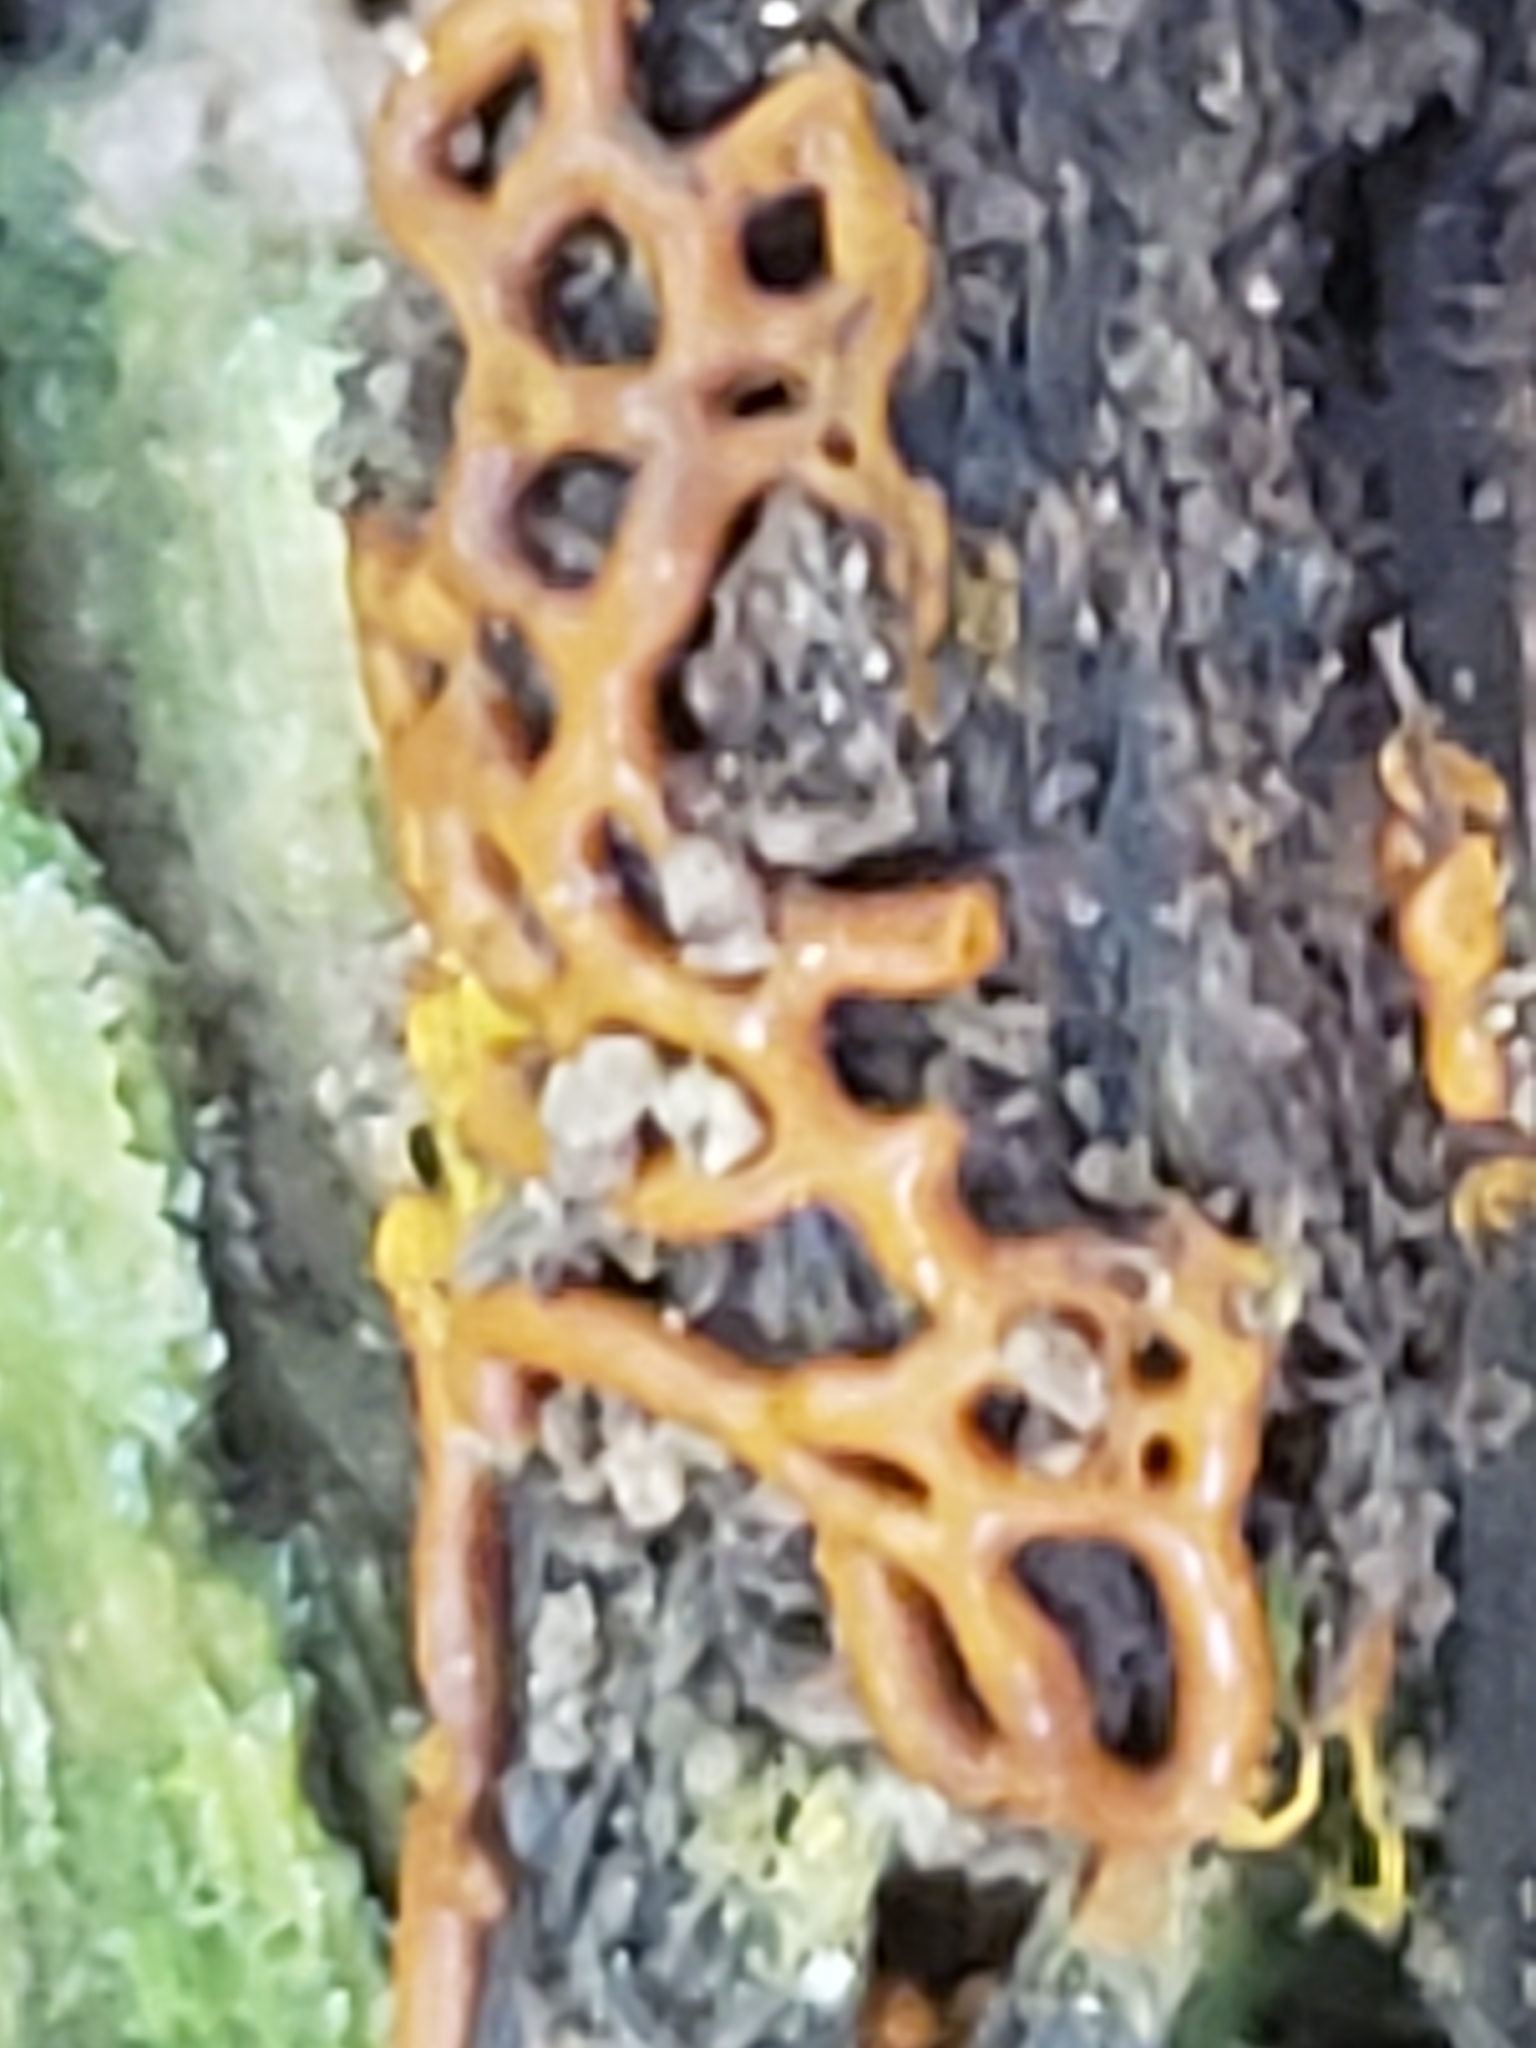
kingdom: Protozoa
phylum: Mycetozoa
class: Myxomycetes
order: Trichiales
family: Arcyriaceae
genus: Hemitrichia
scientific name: Hemitrichia serpula
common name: Pretzel slime mold
